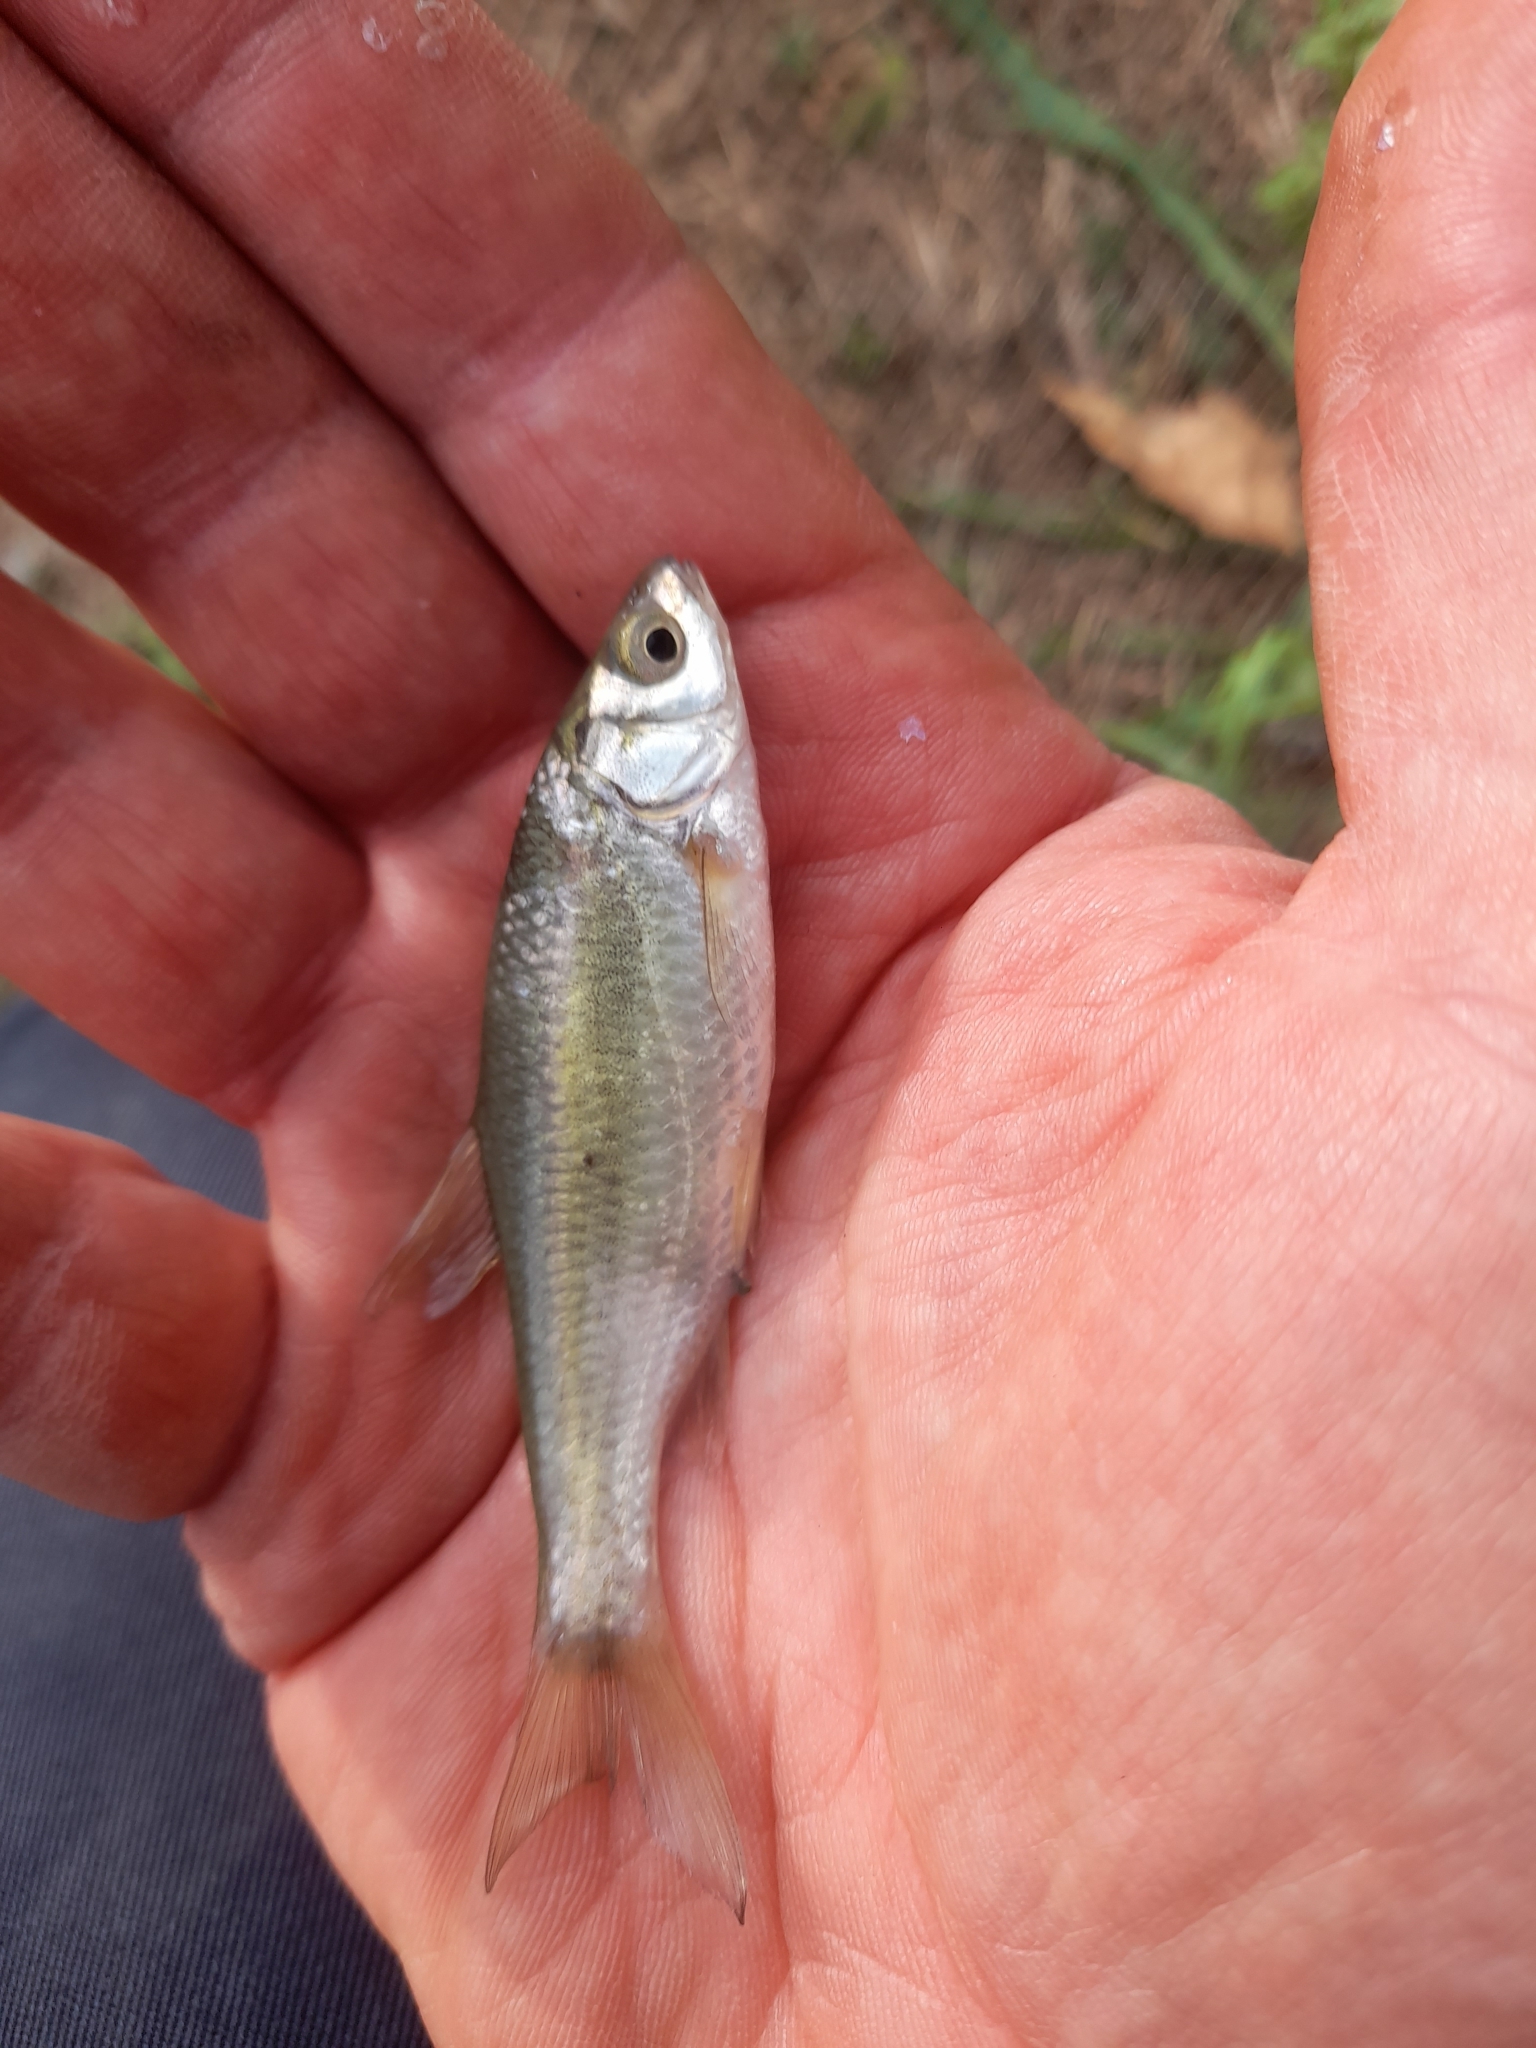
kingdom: Animalia
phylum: Chordata
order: Cypriniformes
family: Cyprinidae
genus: Sarmarutilus
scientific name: Sarmarutilus rubilio
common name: Rovella
